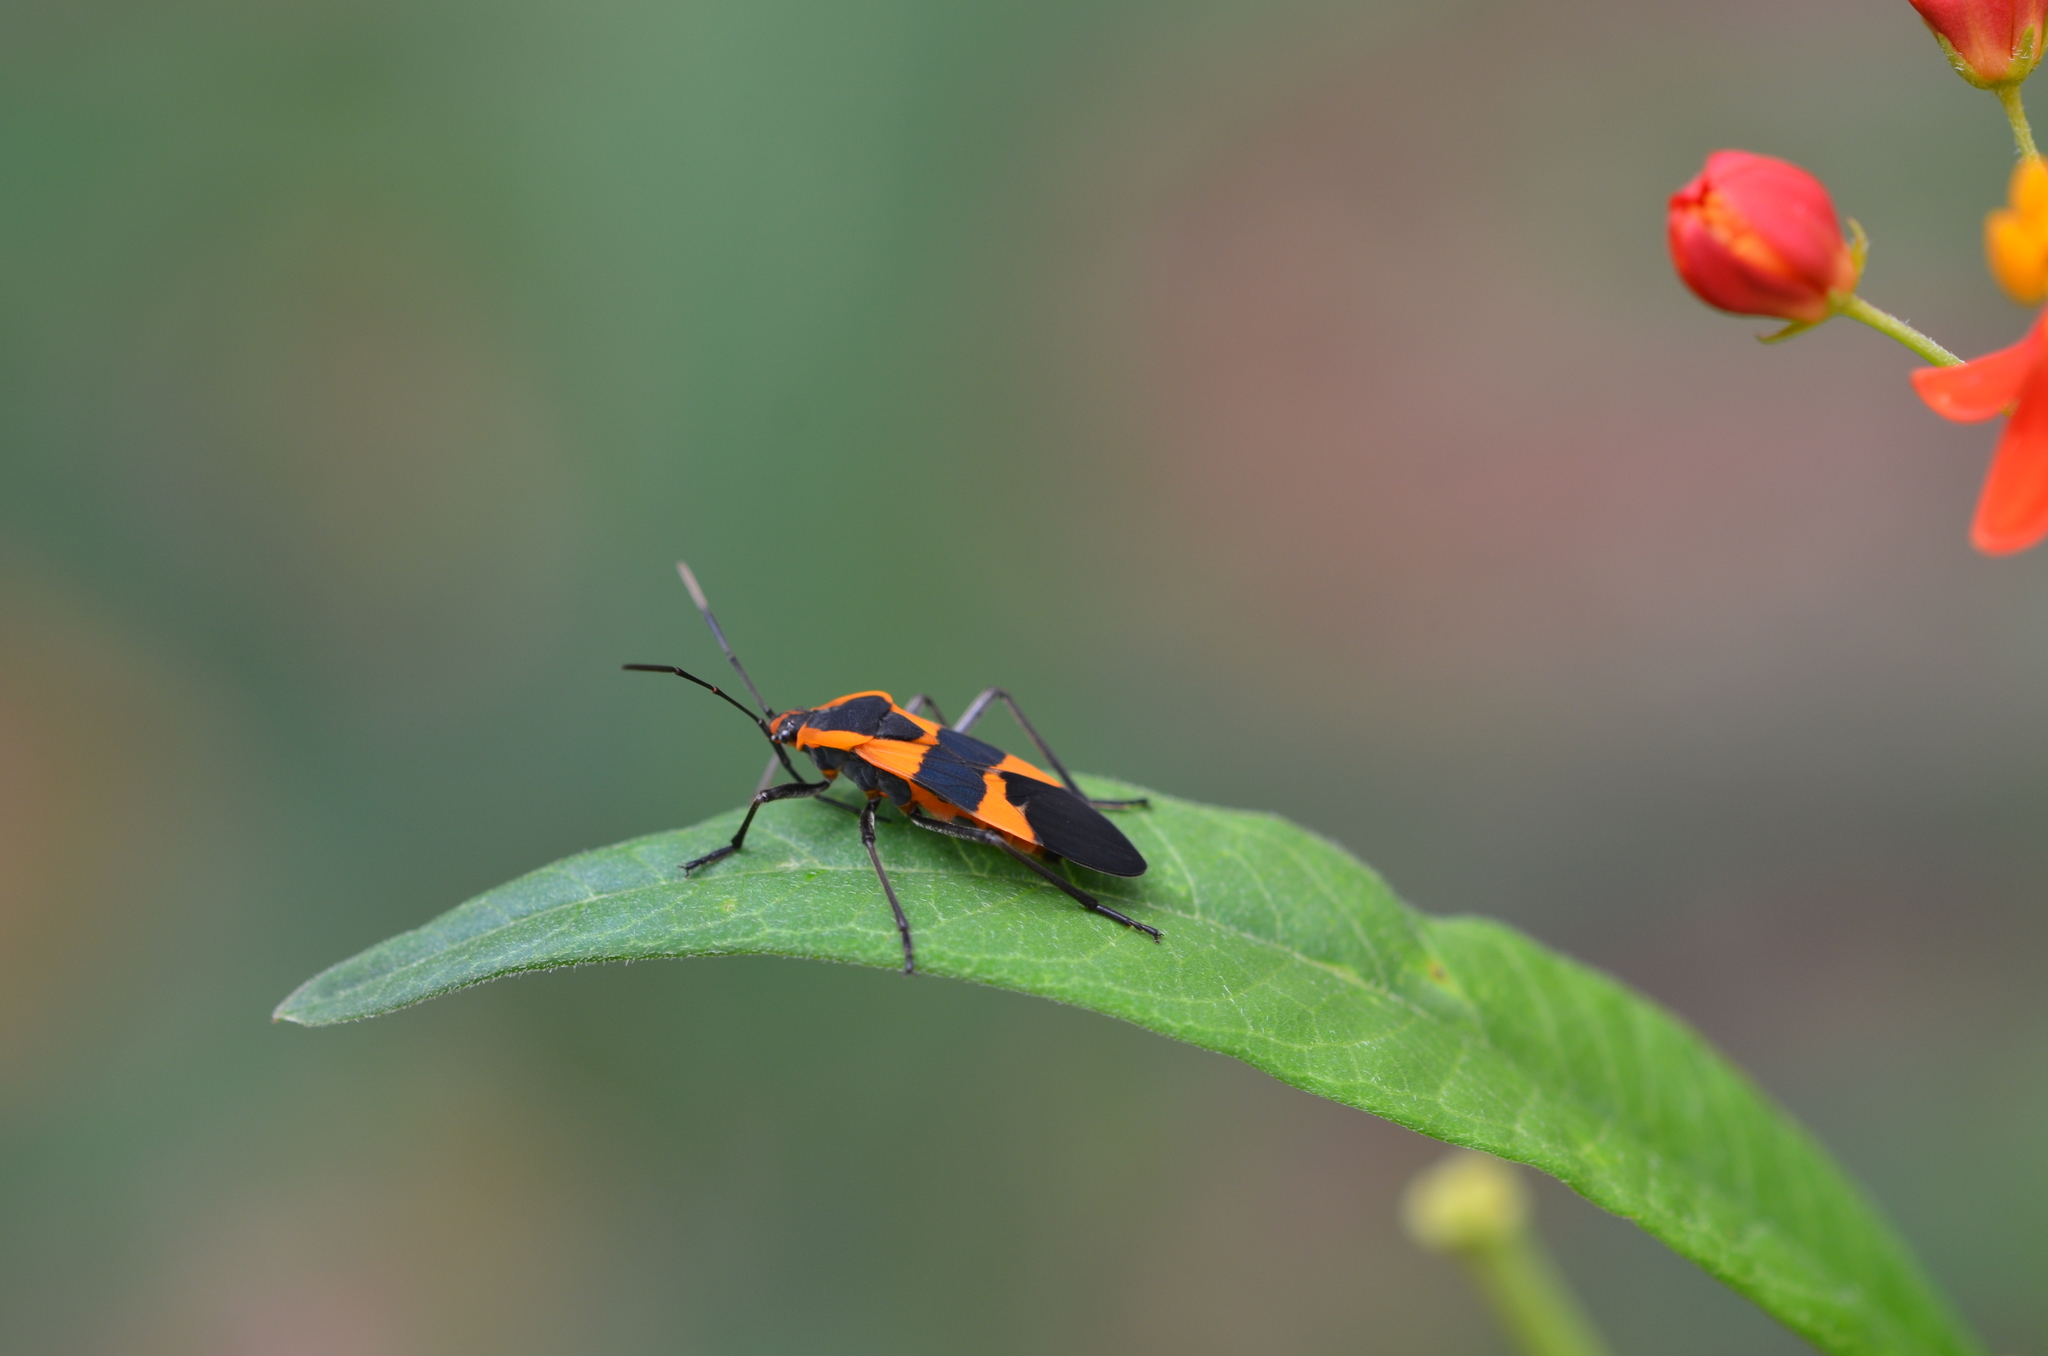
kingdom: Animalia
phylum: Arthropoda
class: Insecta
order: Hemiptera
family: Lygaeidae
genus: Oncopeltus
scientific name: Oncopeltus fasciatus
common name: Large milkweed bug
